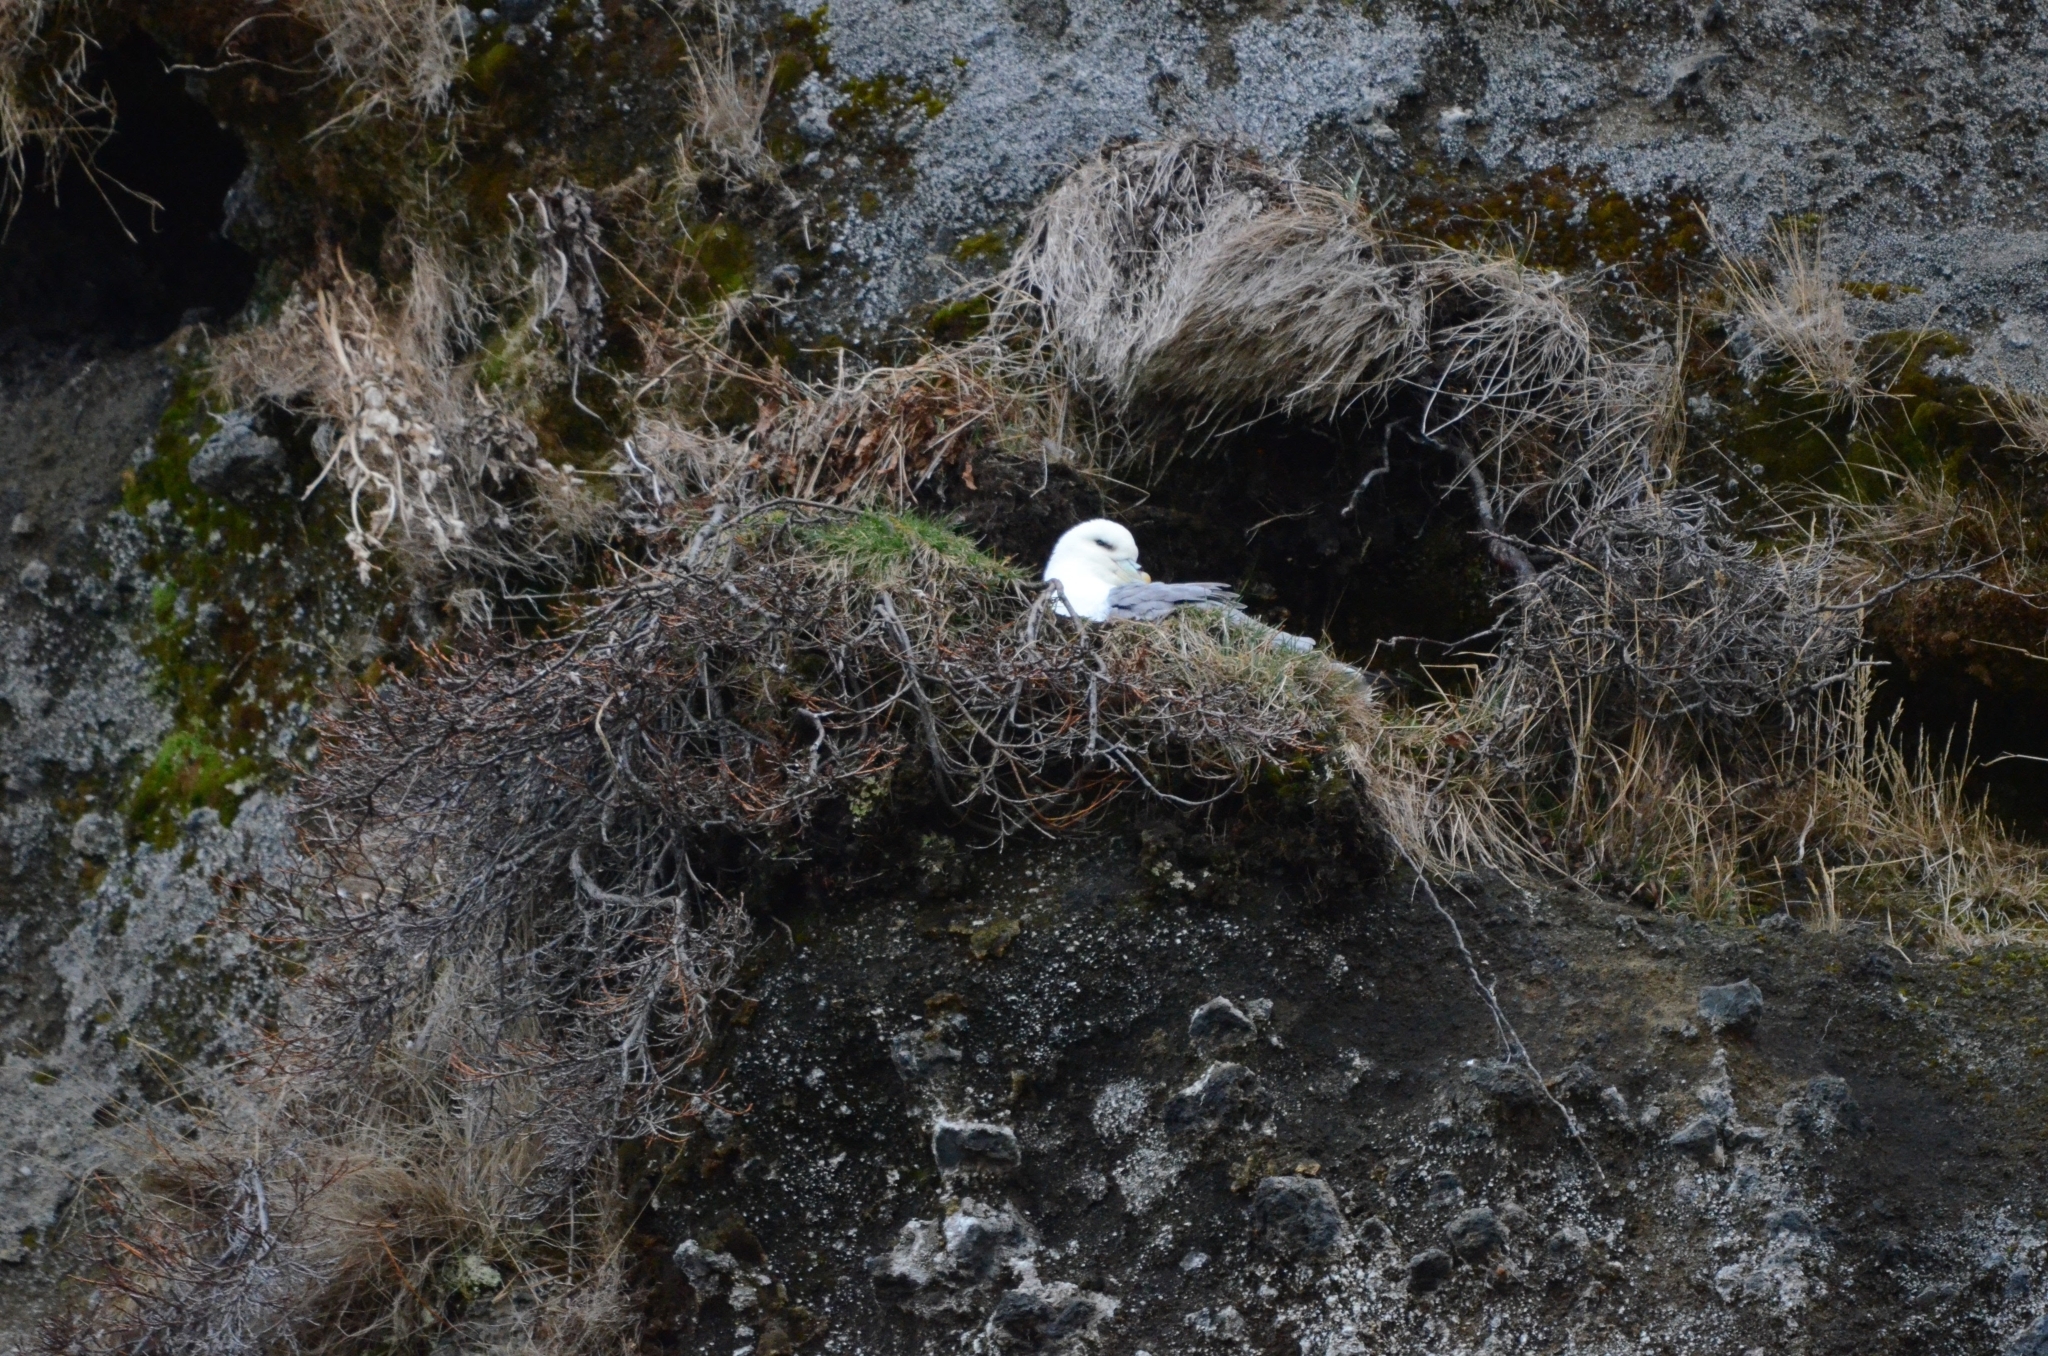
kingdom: Animalia
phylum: Chordata
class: Aves
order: Procellariiformes
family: Procellariidae
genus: Fulmarus
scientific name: Fulmarus glacialis
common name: Northern fulmar
